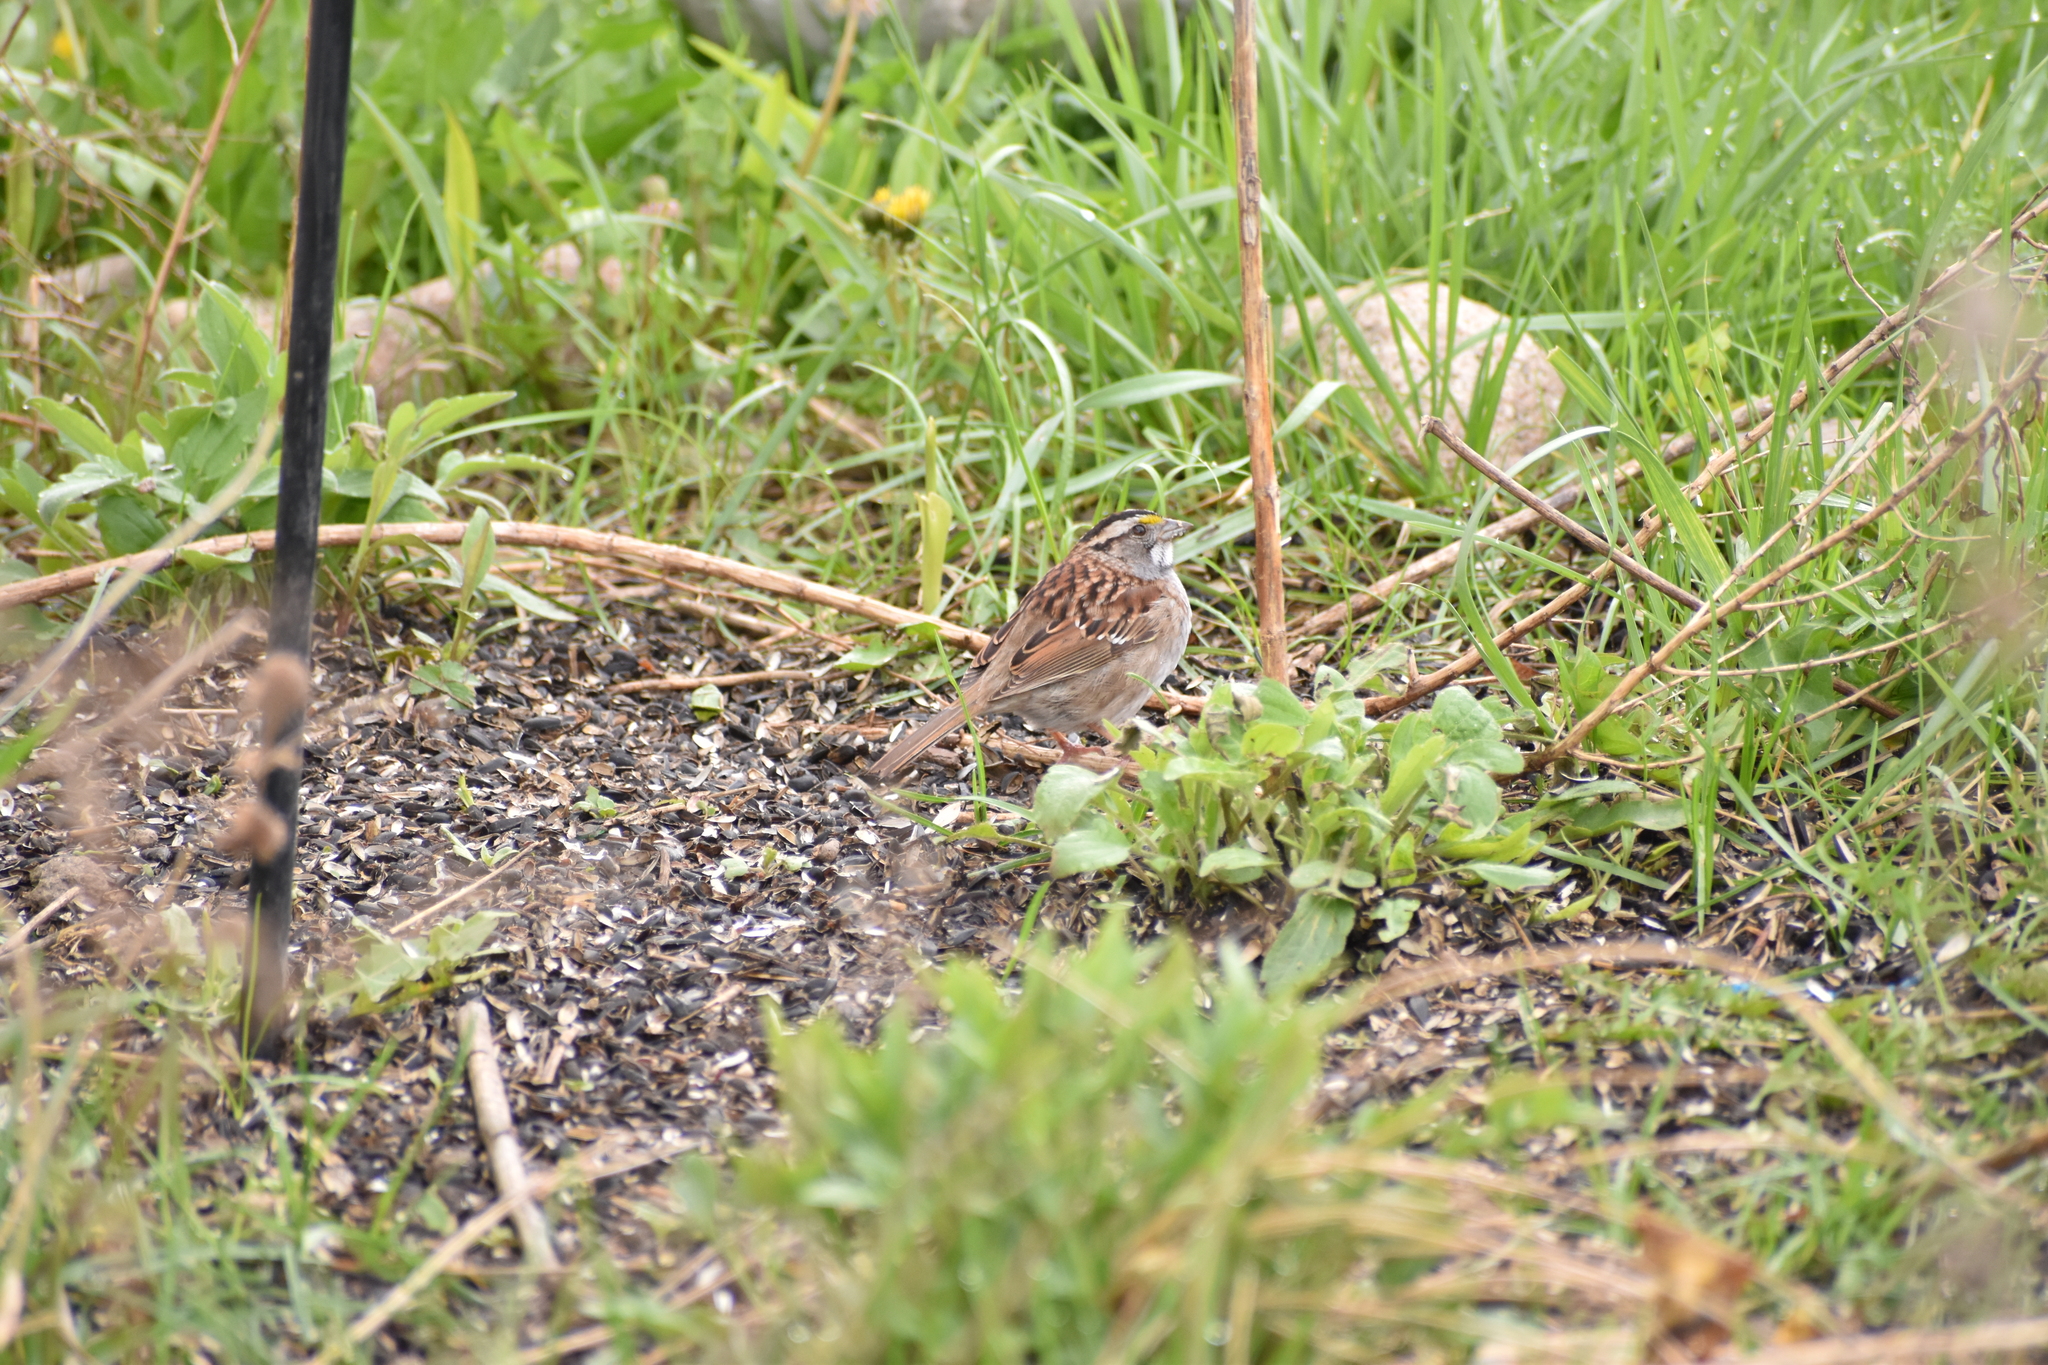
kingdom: Animalia
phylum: Chordata
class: Aves
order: Passeriformes
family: Passerellidae
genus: Zonotrichia
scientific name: Zonotrichia albicollis
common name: White-throated sparrow
